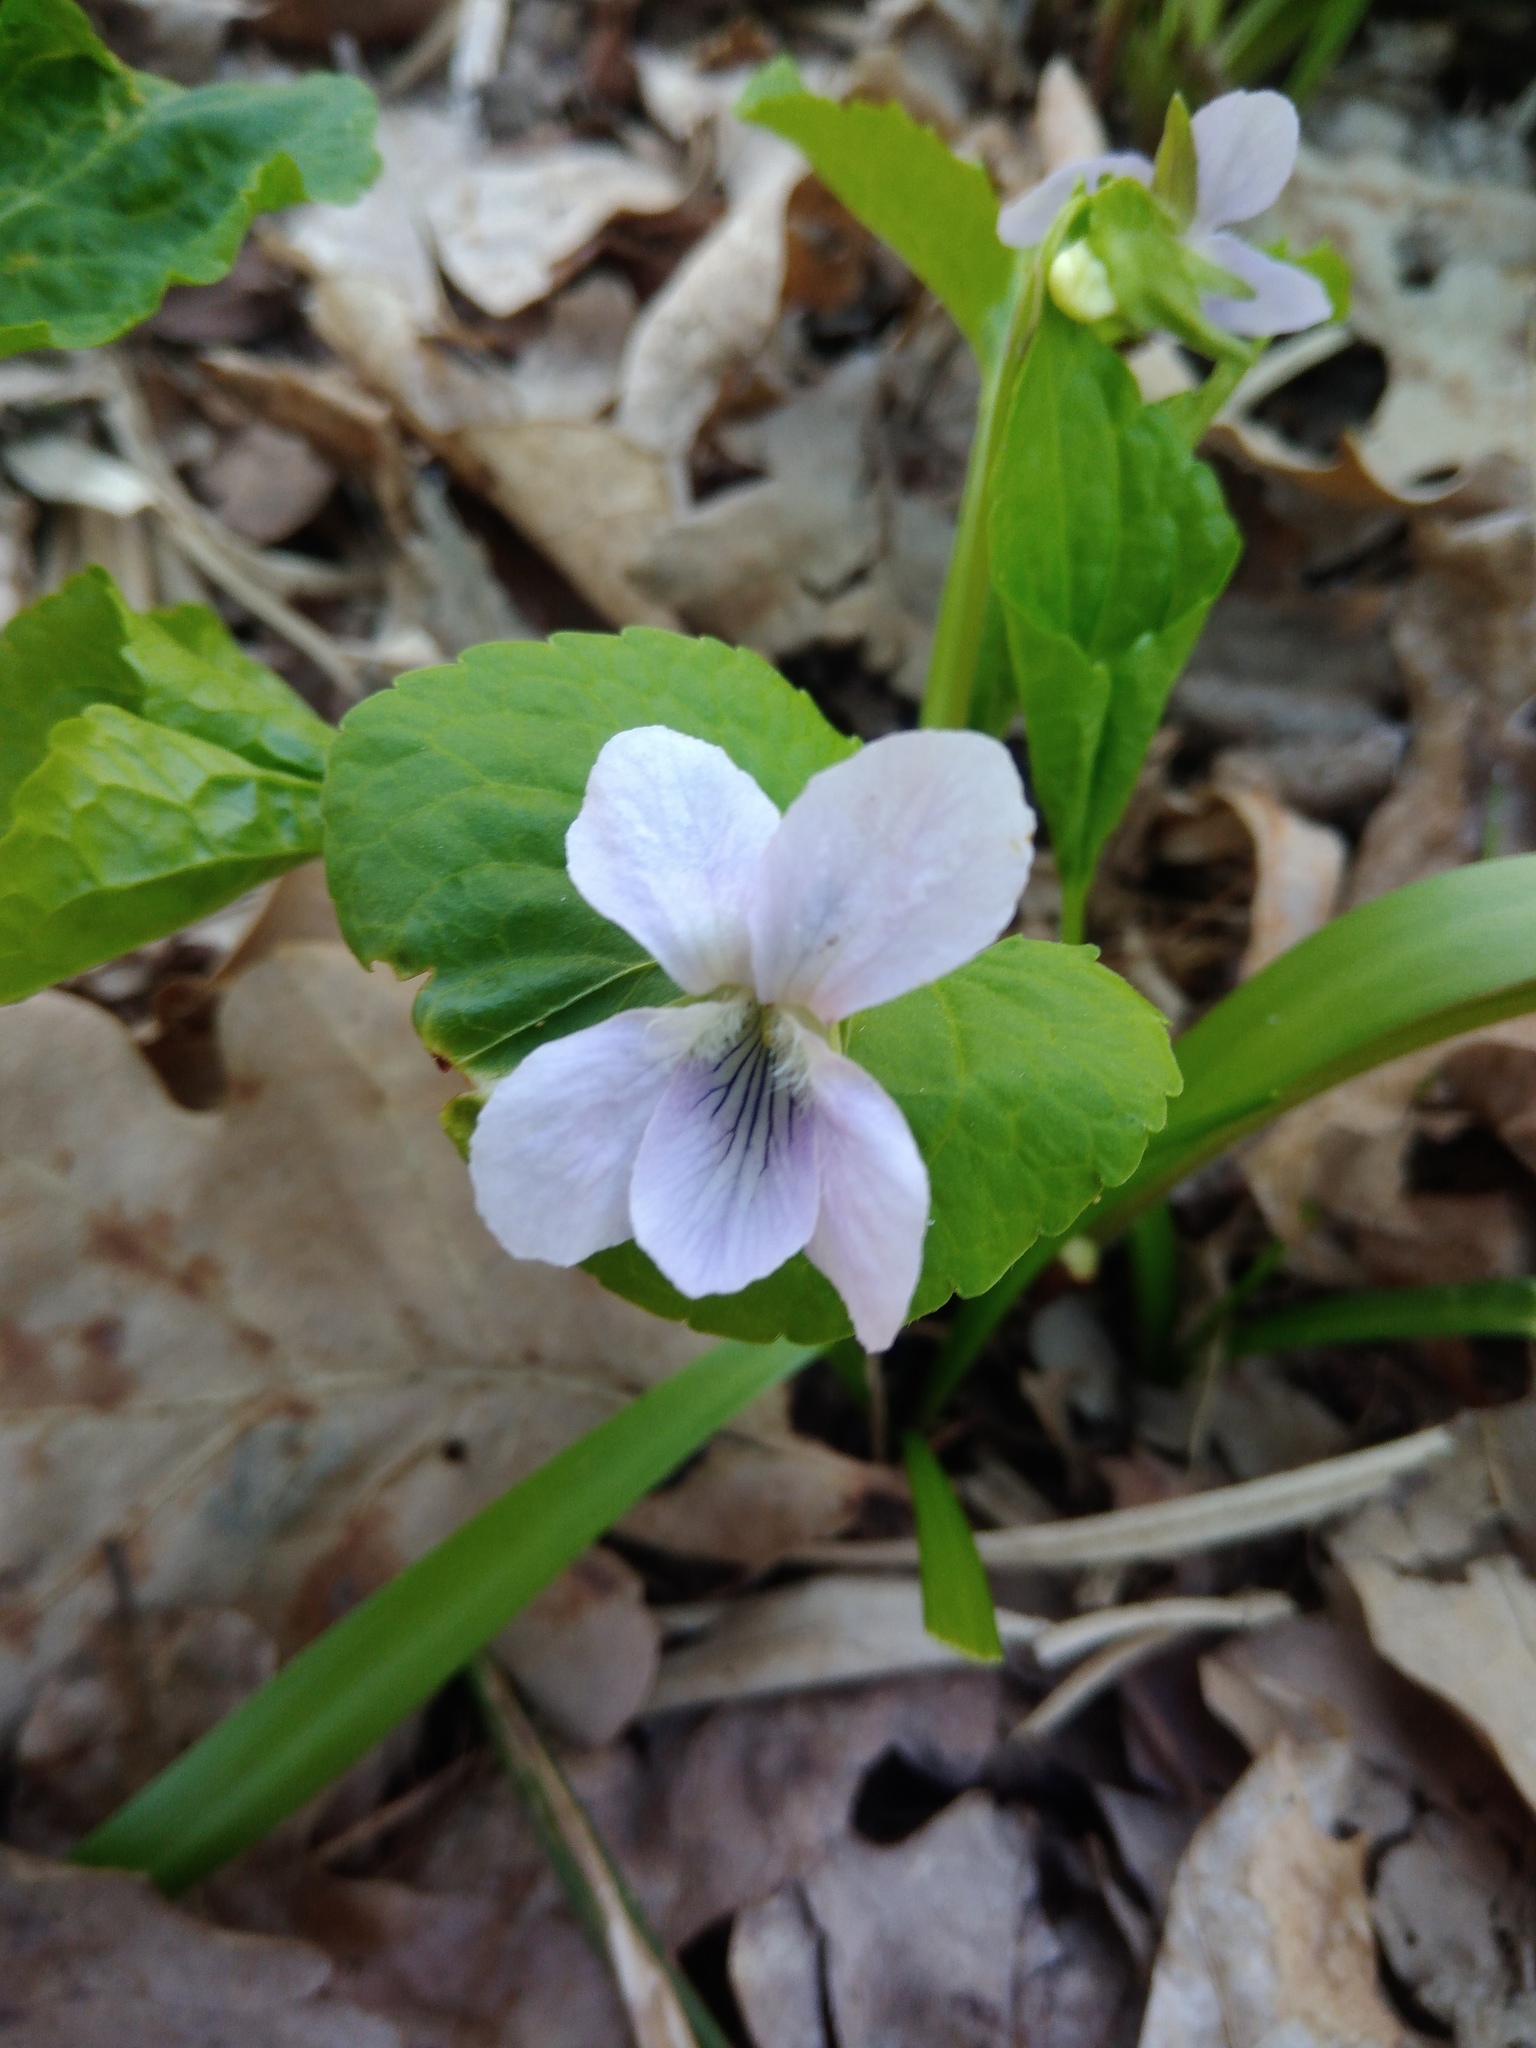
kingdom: Plantae
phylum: Tracheophyta
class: Magnoliopsida
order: Malpighiales
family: Violaceae
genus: Viola
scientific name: Viola mirabilis
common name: Wonder violet
